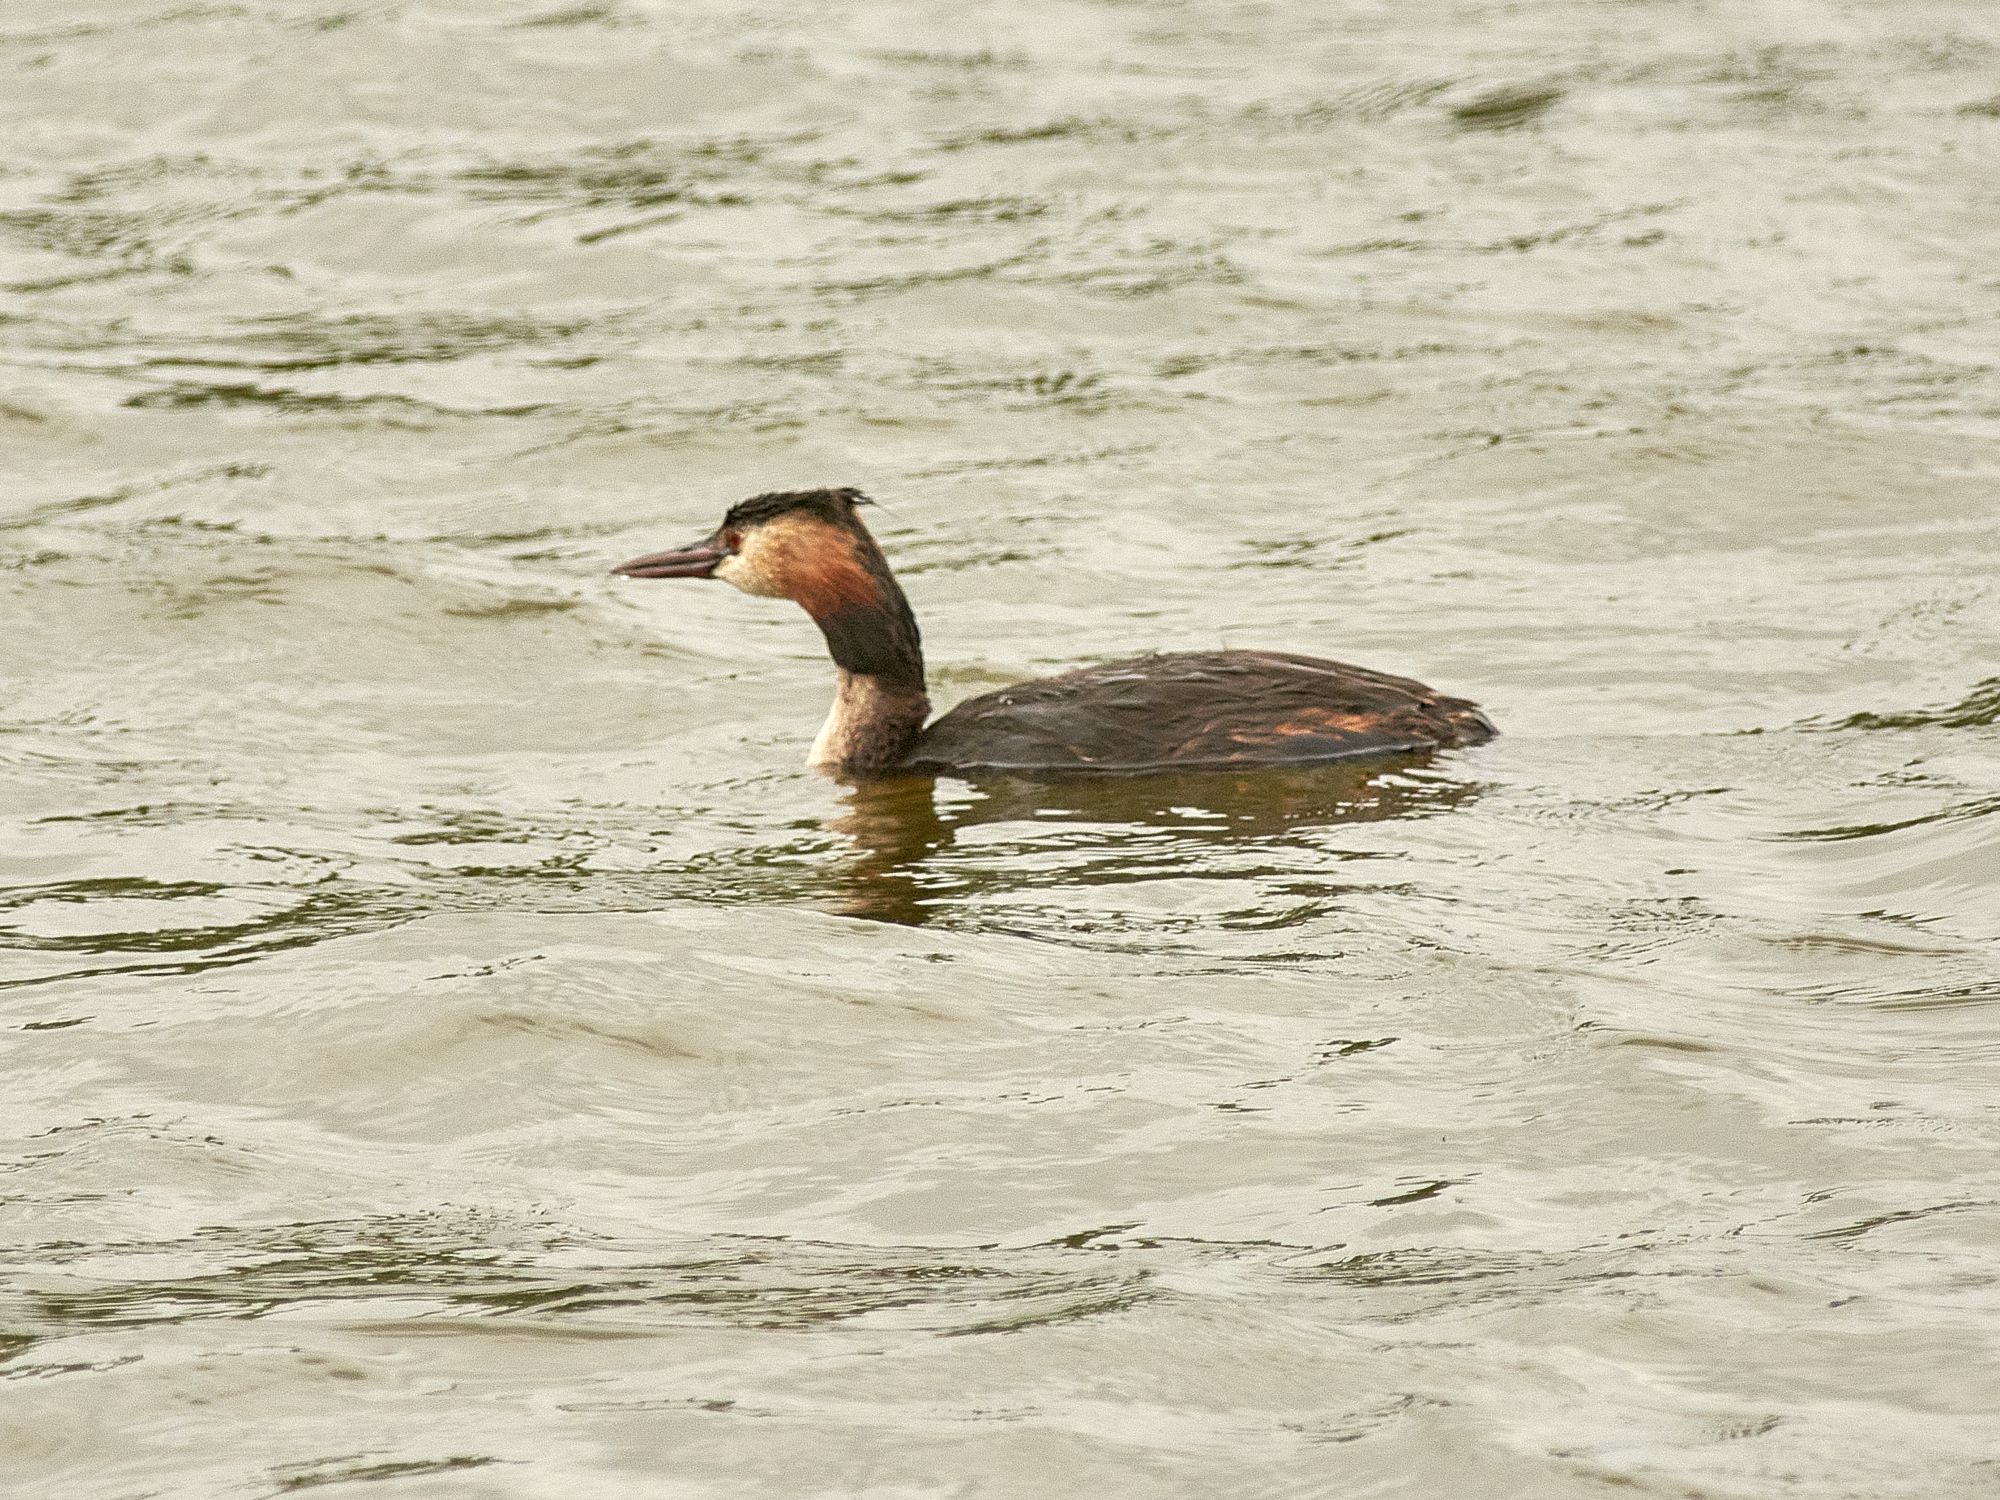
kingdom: Animalia
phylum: Chordata
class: Aves
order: Podicipediformes
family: Podicipedidae
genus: Podiceps
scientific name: Podiceps cristatus
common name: Great crested grebe
